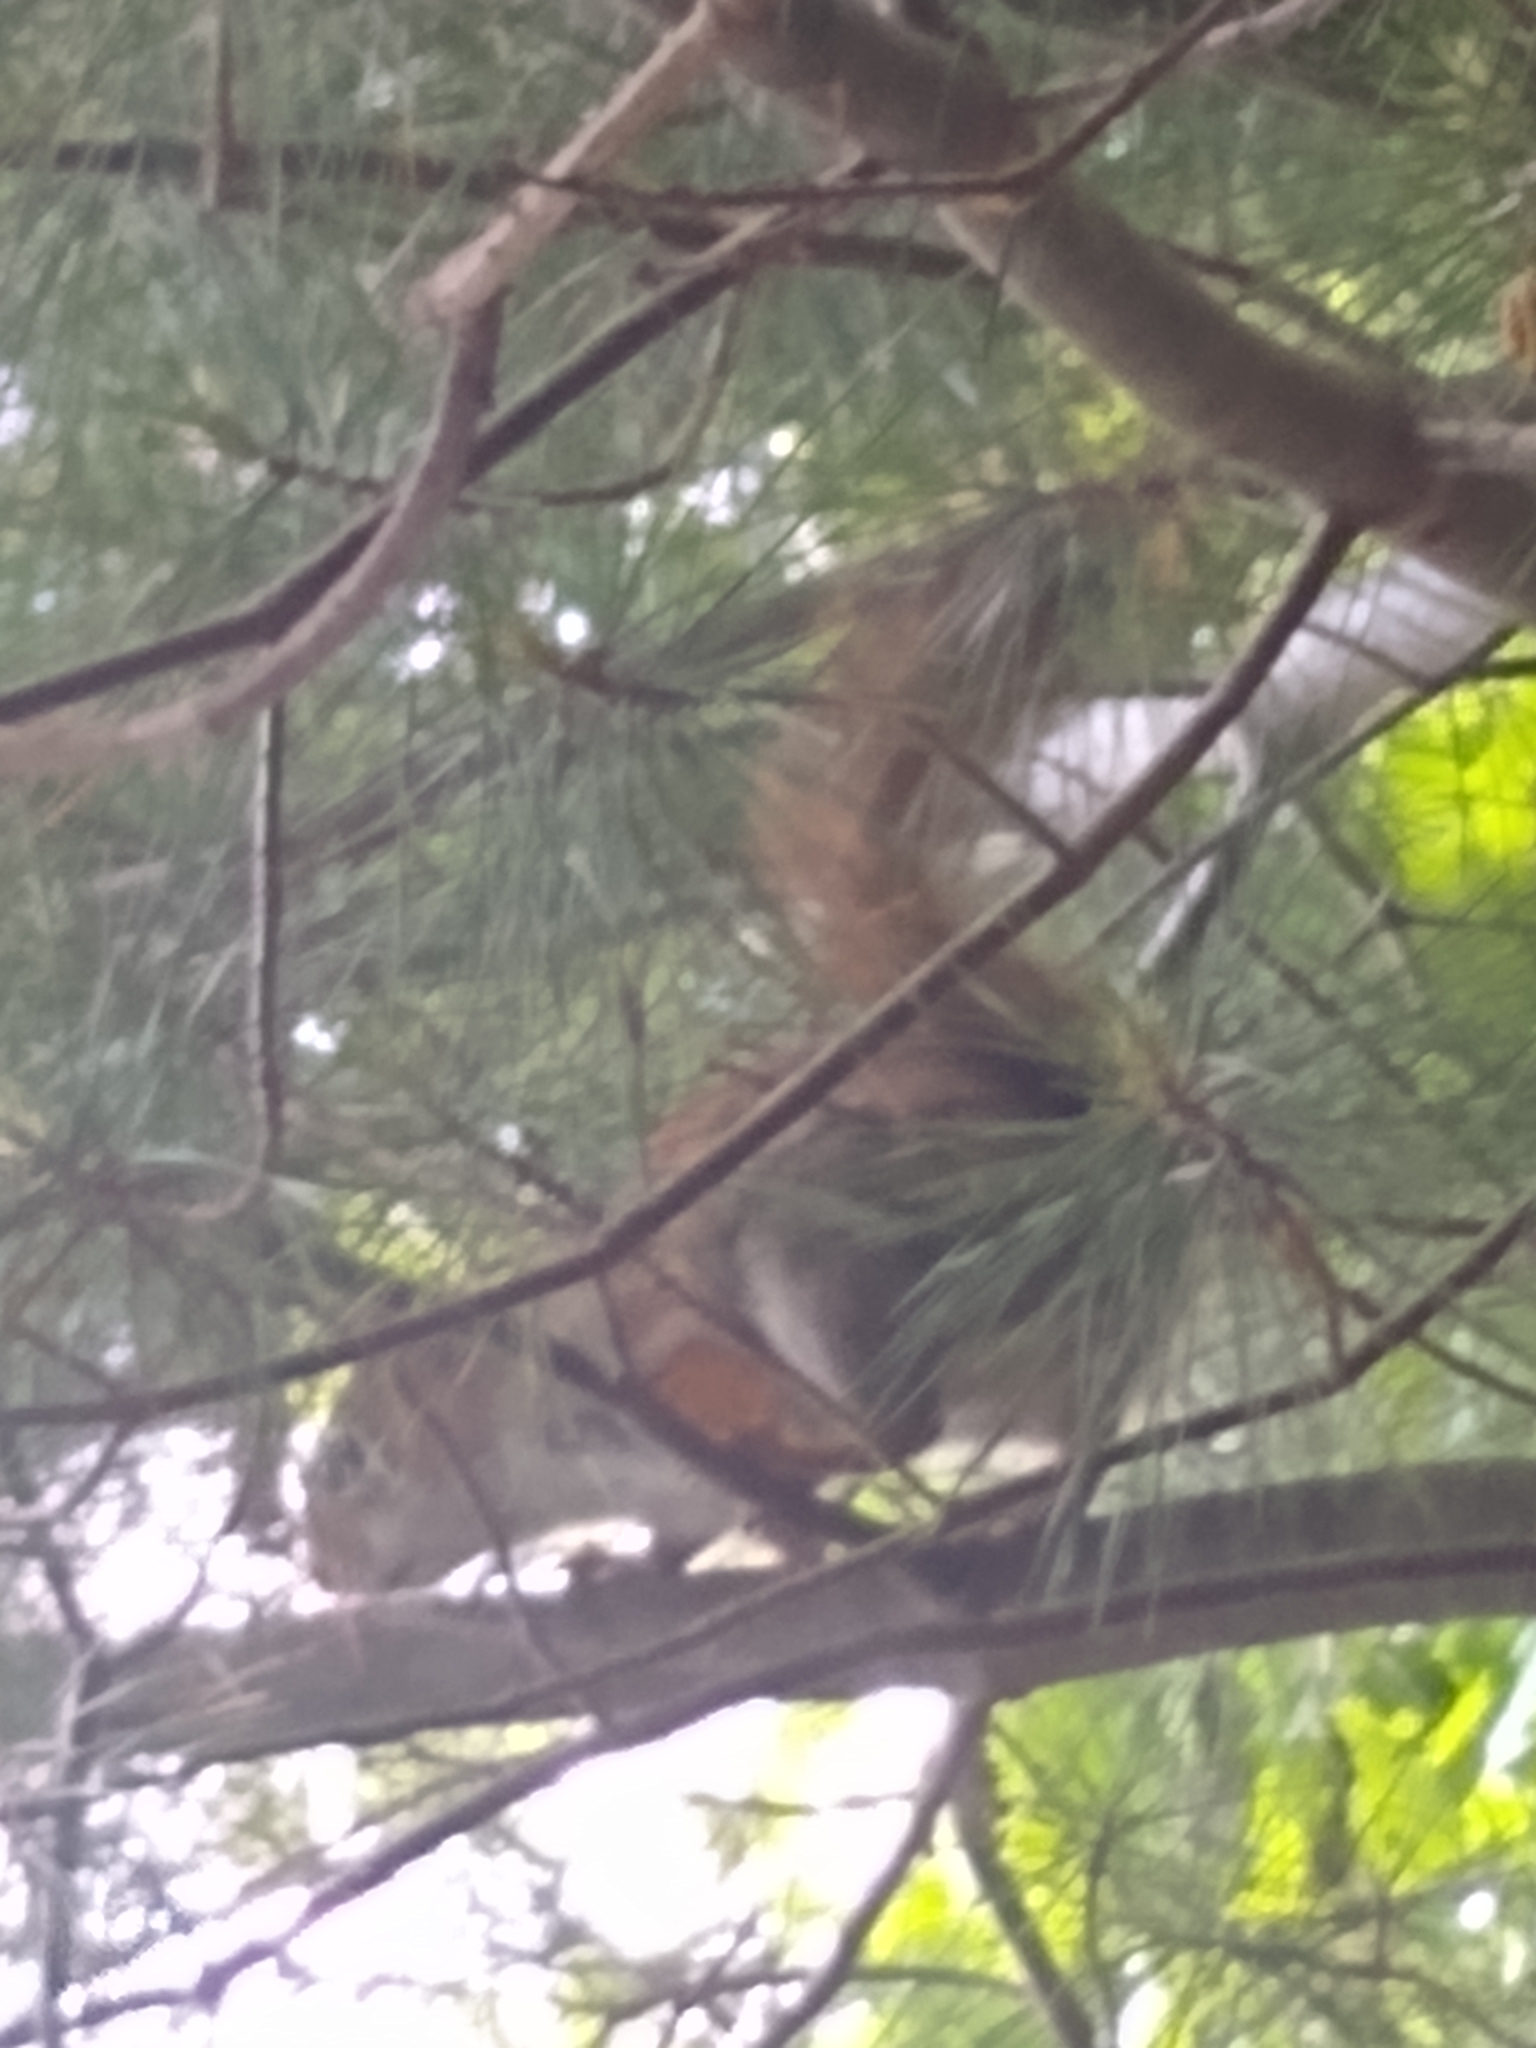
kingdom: Animalia
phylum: Chordata
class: Mammalia
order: Rodentia
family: Sciuridae
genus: Tamiasciurus
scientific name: Tamiasciurus hudsonicus
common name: Red squirrel
